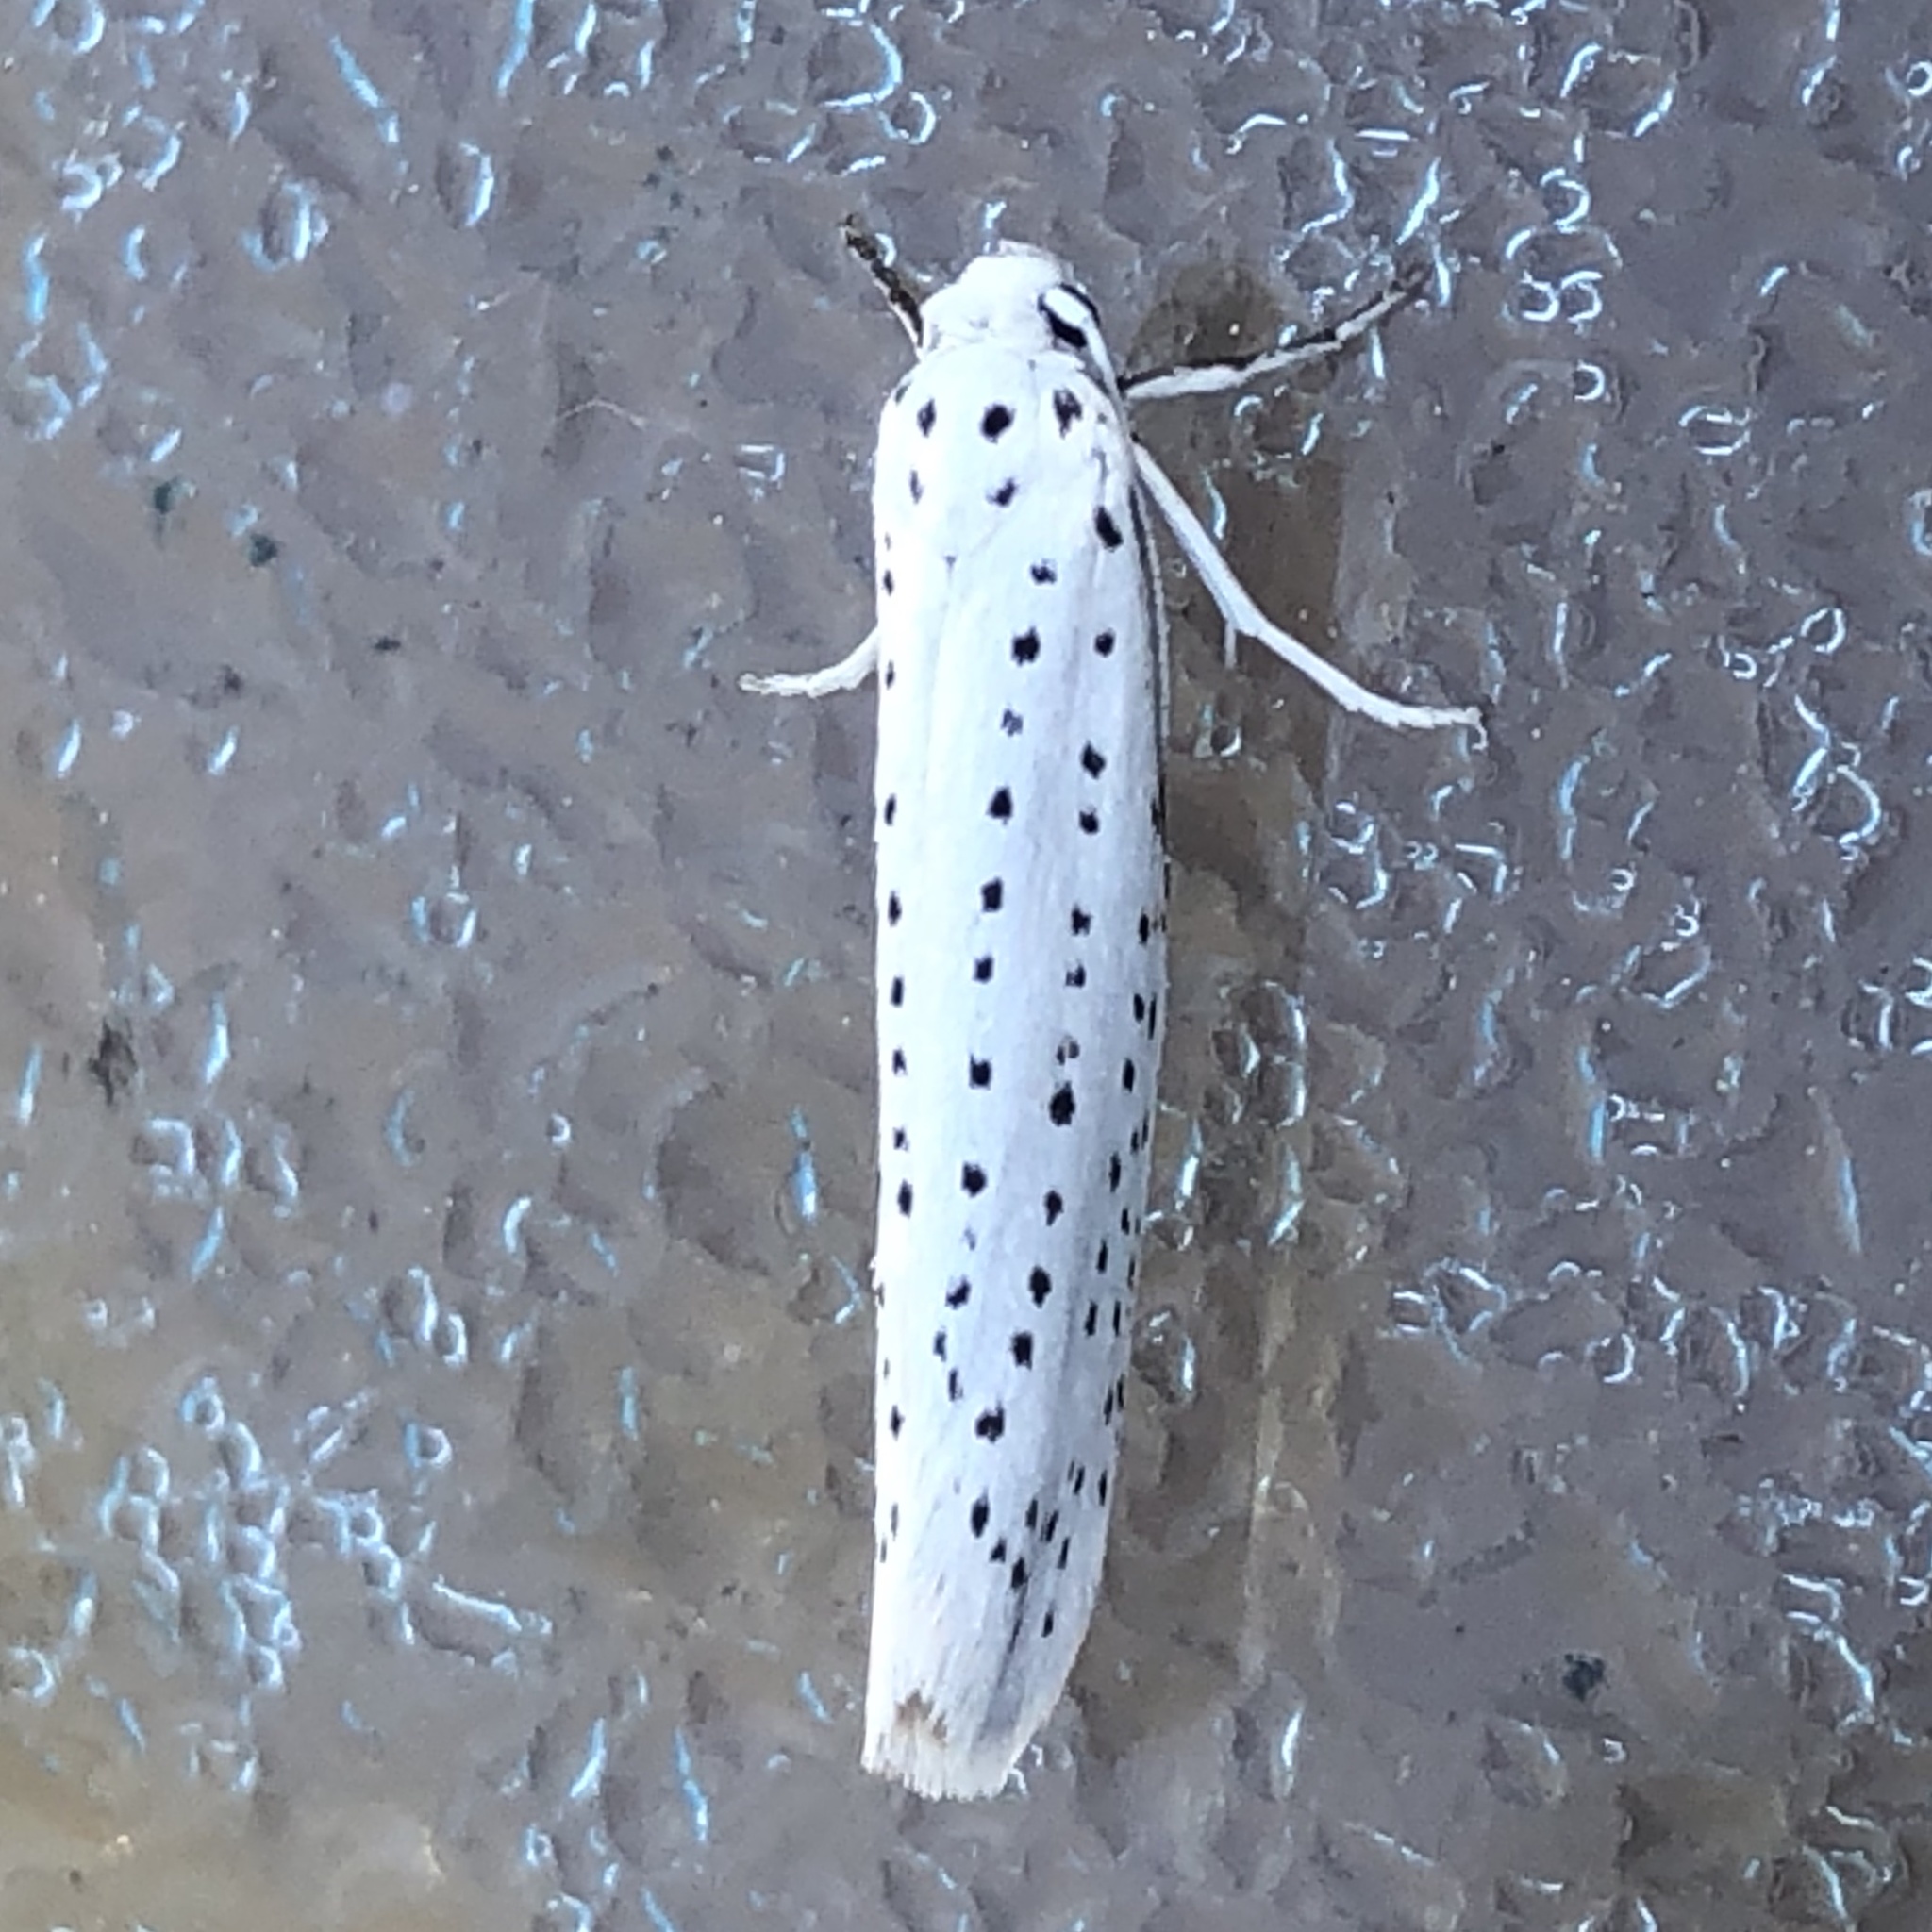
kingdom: Animalia
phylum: Arthropoda
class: Insecta
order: Lepidoptera
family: Yponomeutidae
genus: Yponomeuta
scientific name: Yponomeuta evonymella
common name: Bird-cherry ermine
